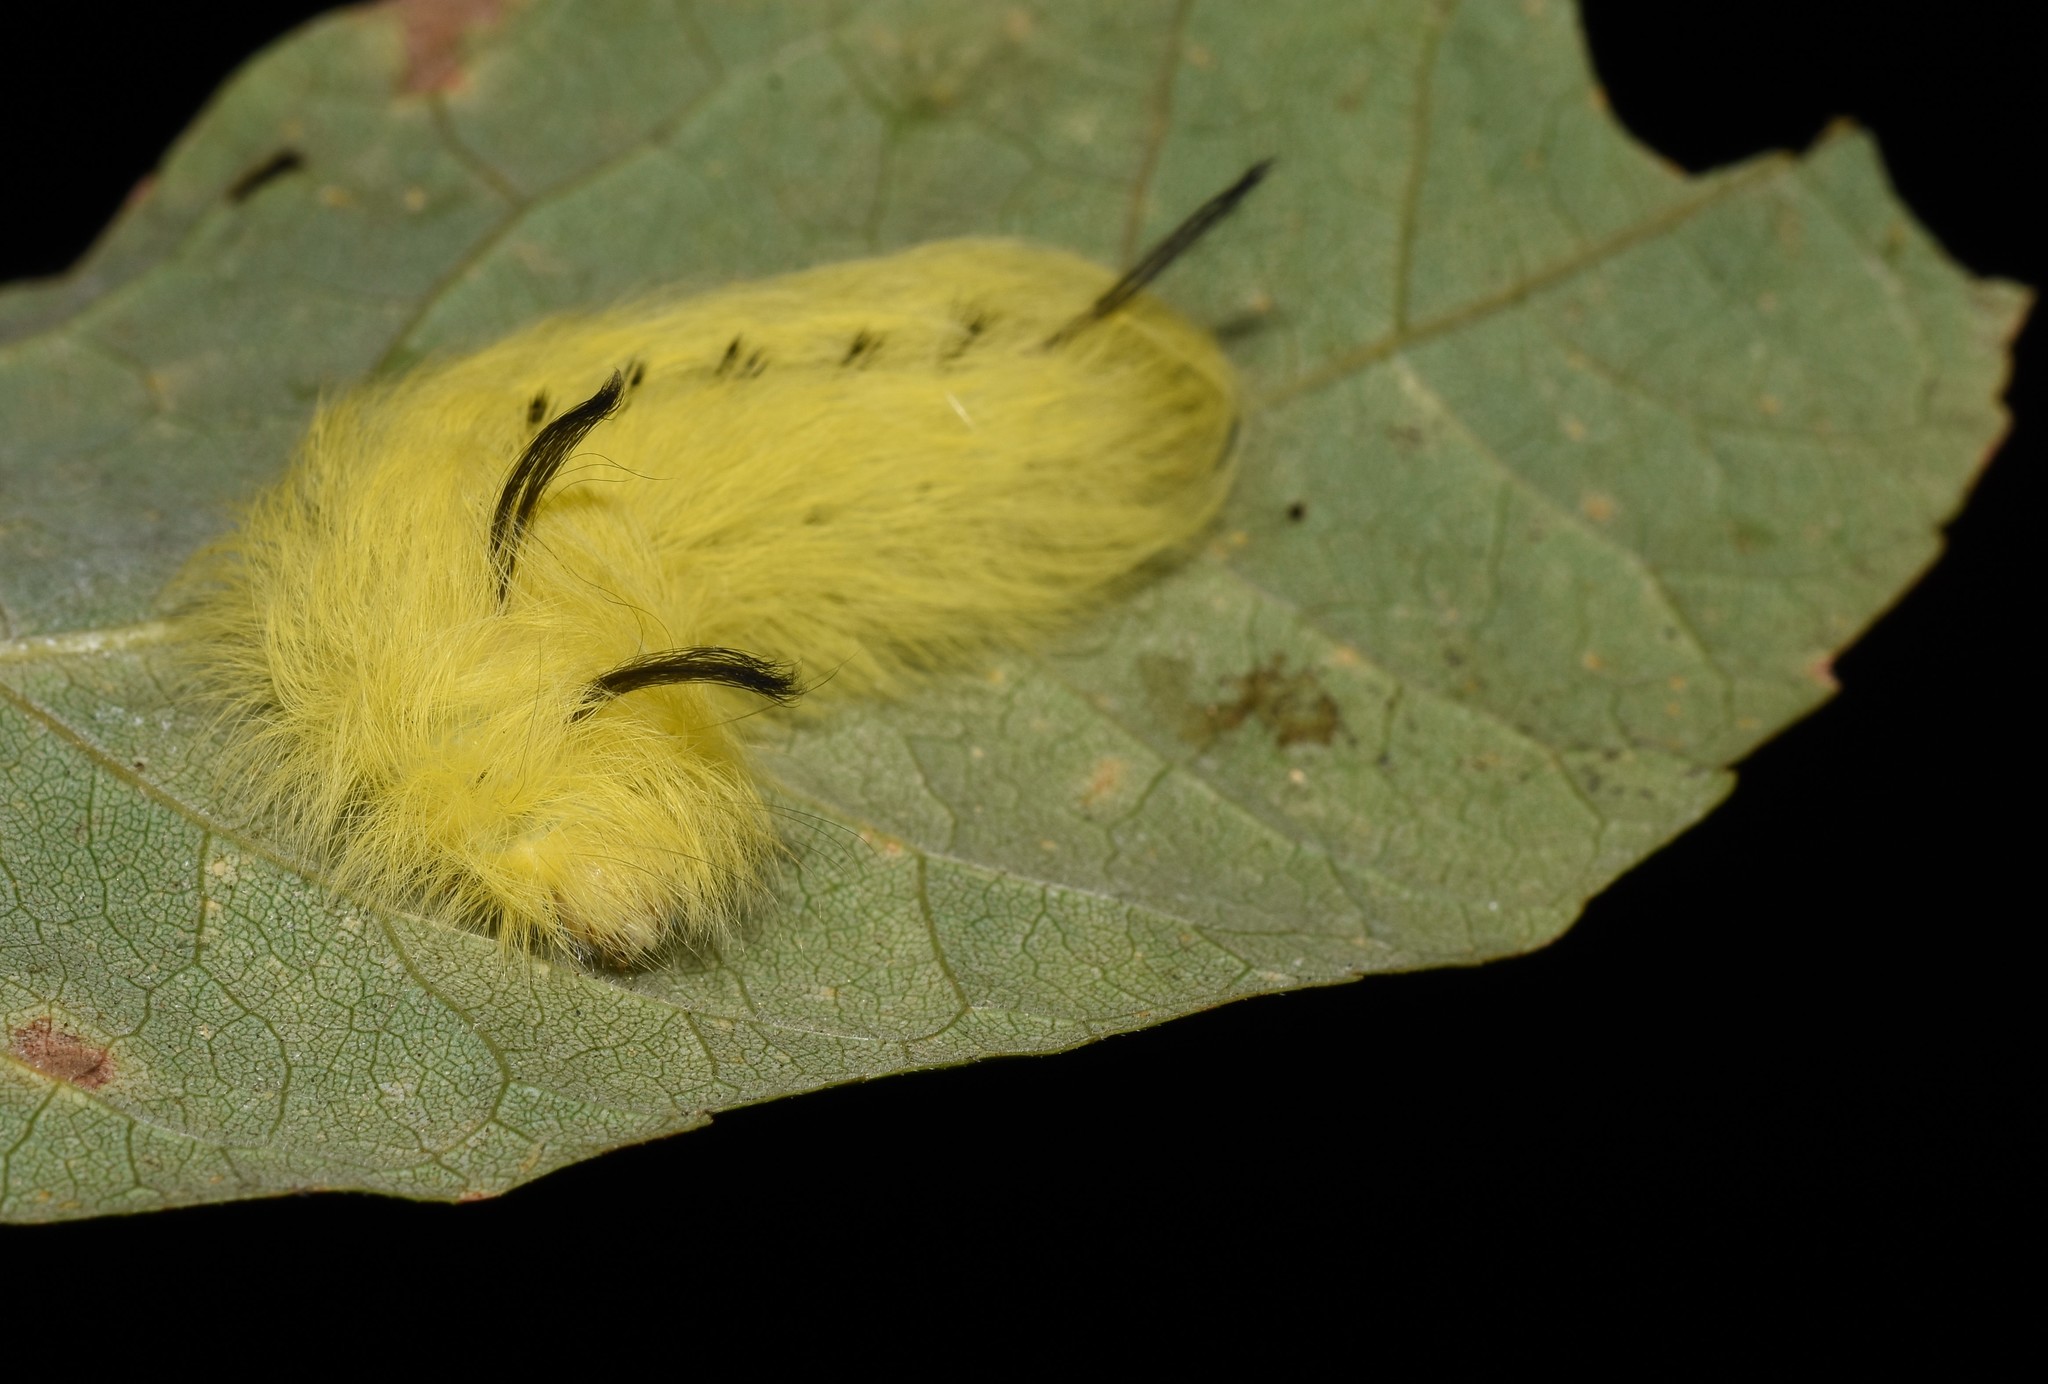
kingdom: Animalia
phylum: Arthropoda
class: Insecta
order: Lepidoptera
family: Apatelodidae
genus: Hygrochroa
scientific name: Hygrochroa Apatelodes torrefacta
